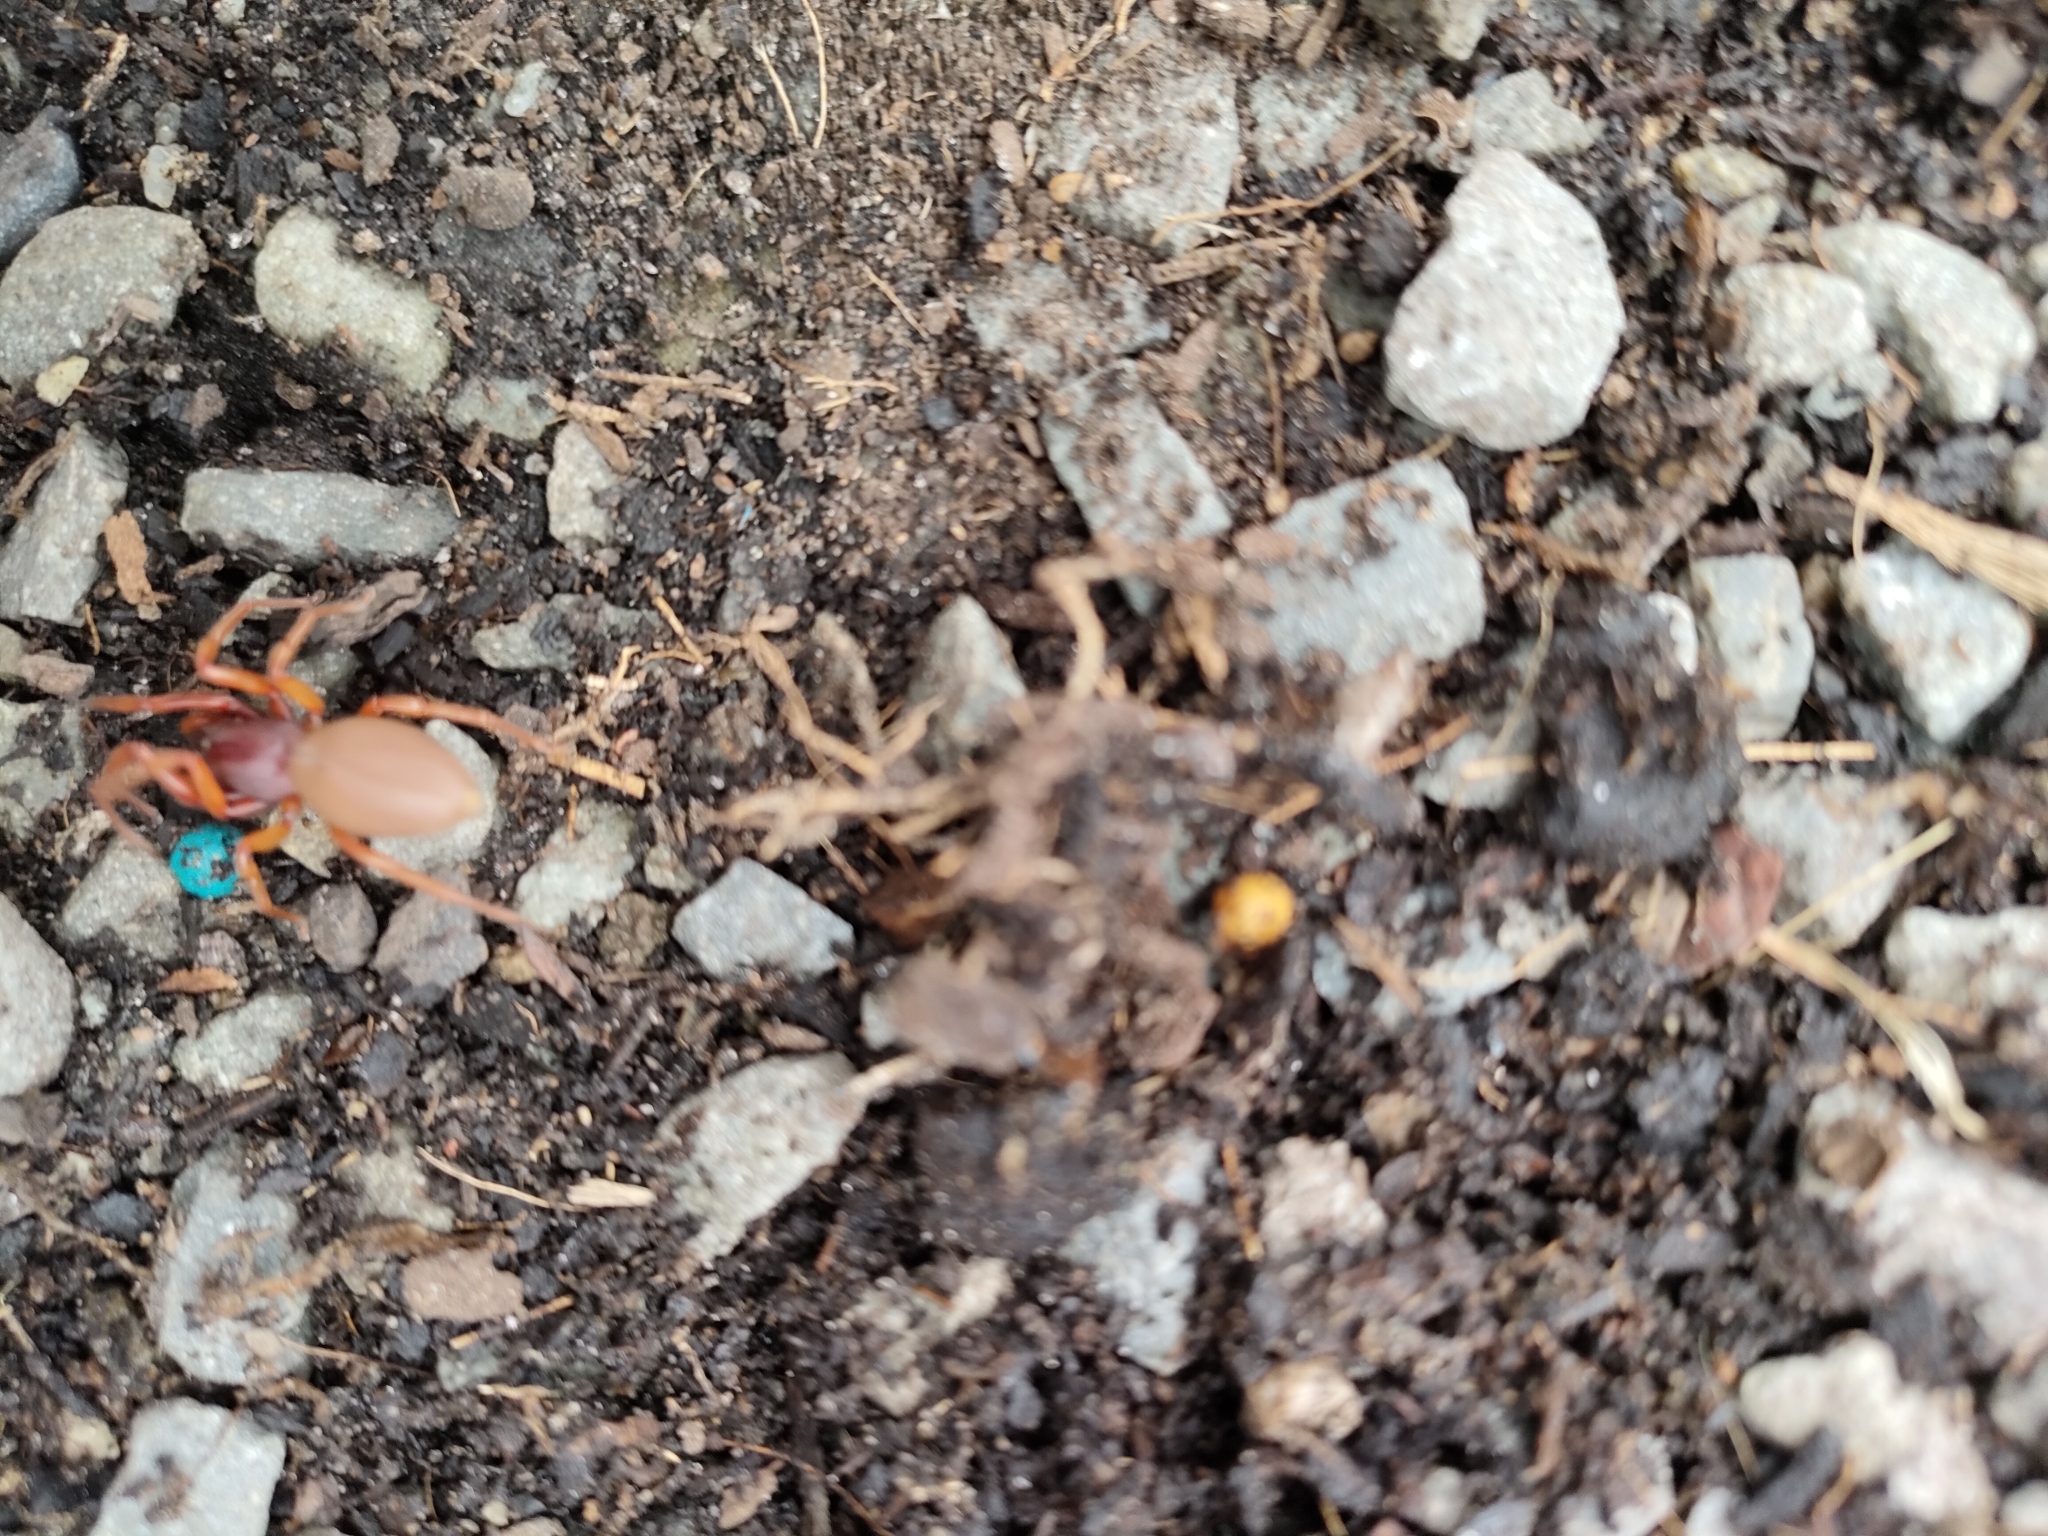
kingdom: Animalia
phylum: Arthropoda
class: Arachnida
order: Araneae
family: Dysderidae
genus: Dysdera
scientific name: Dysdera crocata
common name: Woodlouse spider
